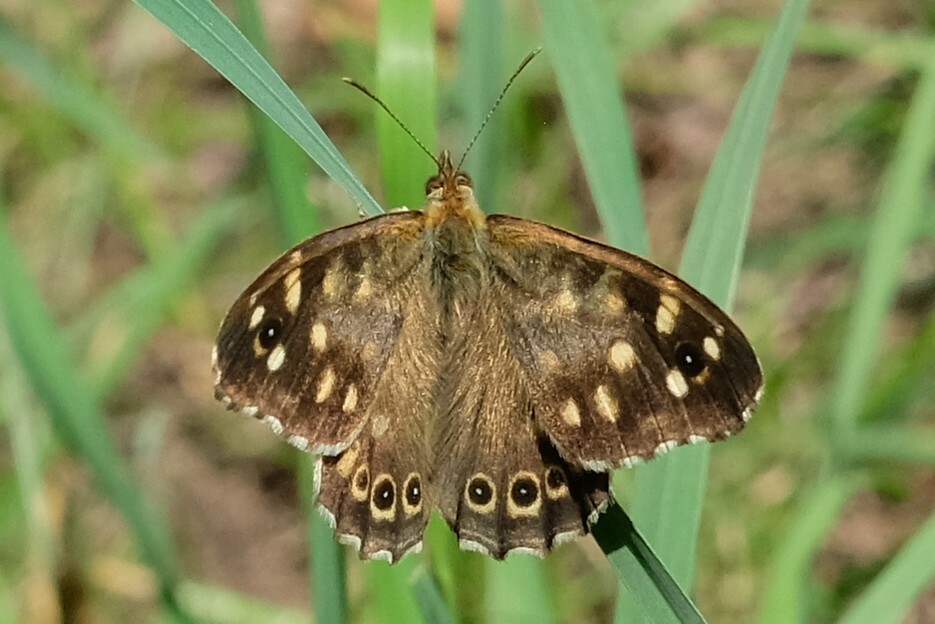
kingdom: Animalia
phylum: Arthropoda
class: Insecta
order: Lepidoptera
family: Nymphalidae
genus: Pararge
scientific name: Pararge aegeria
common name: Speckled wood
